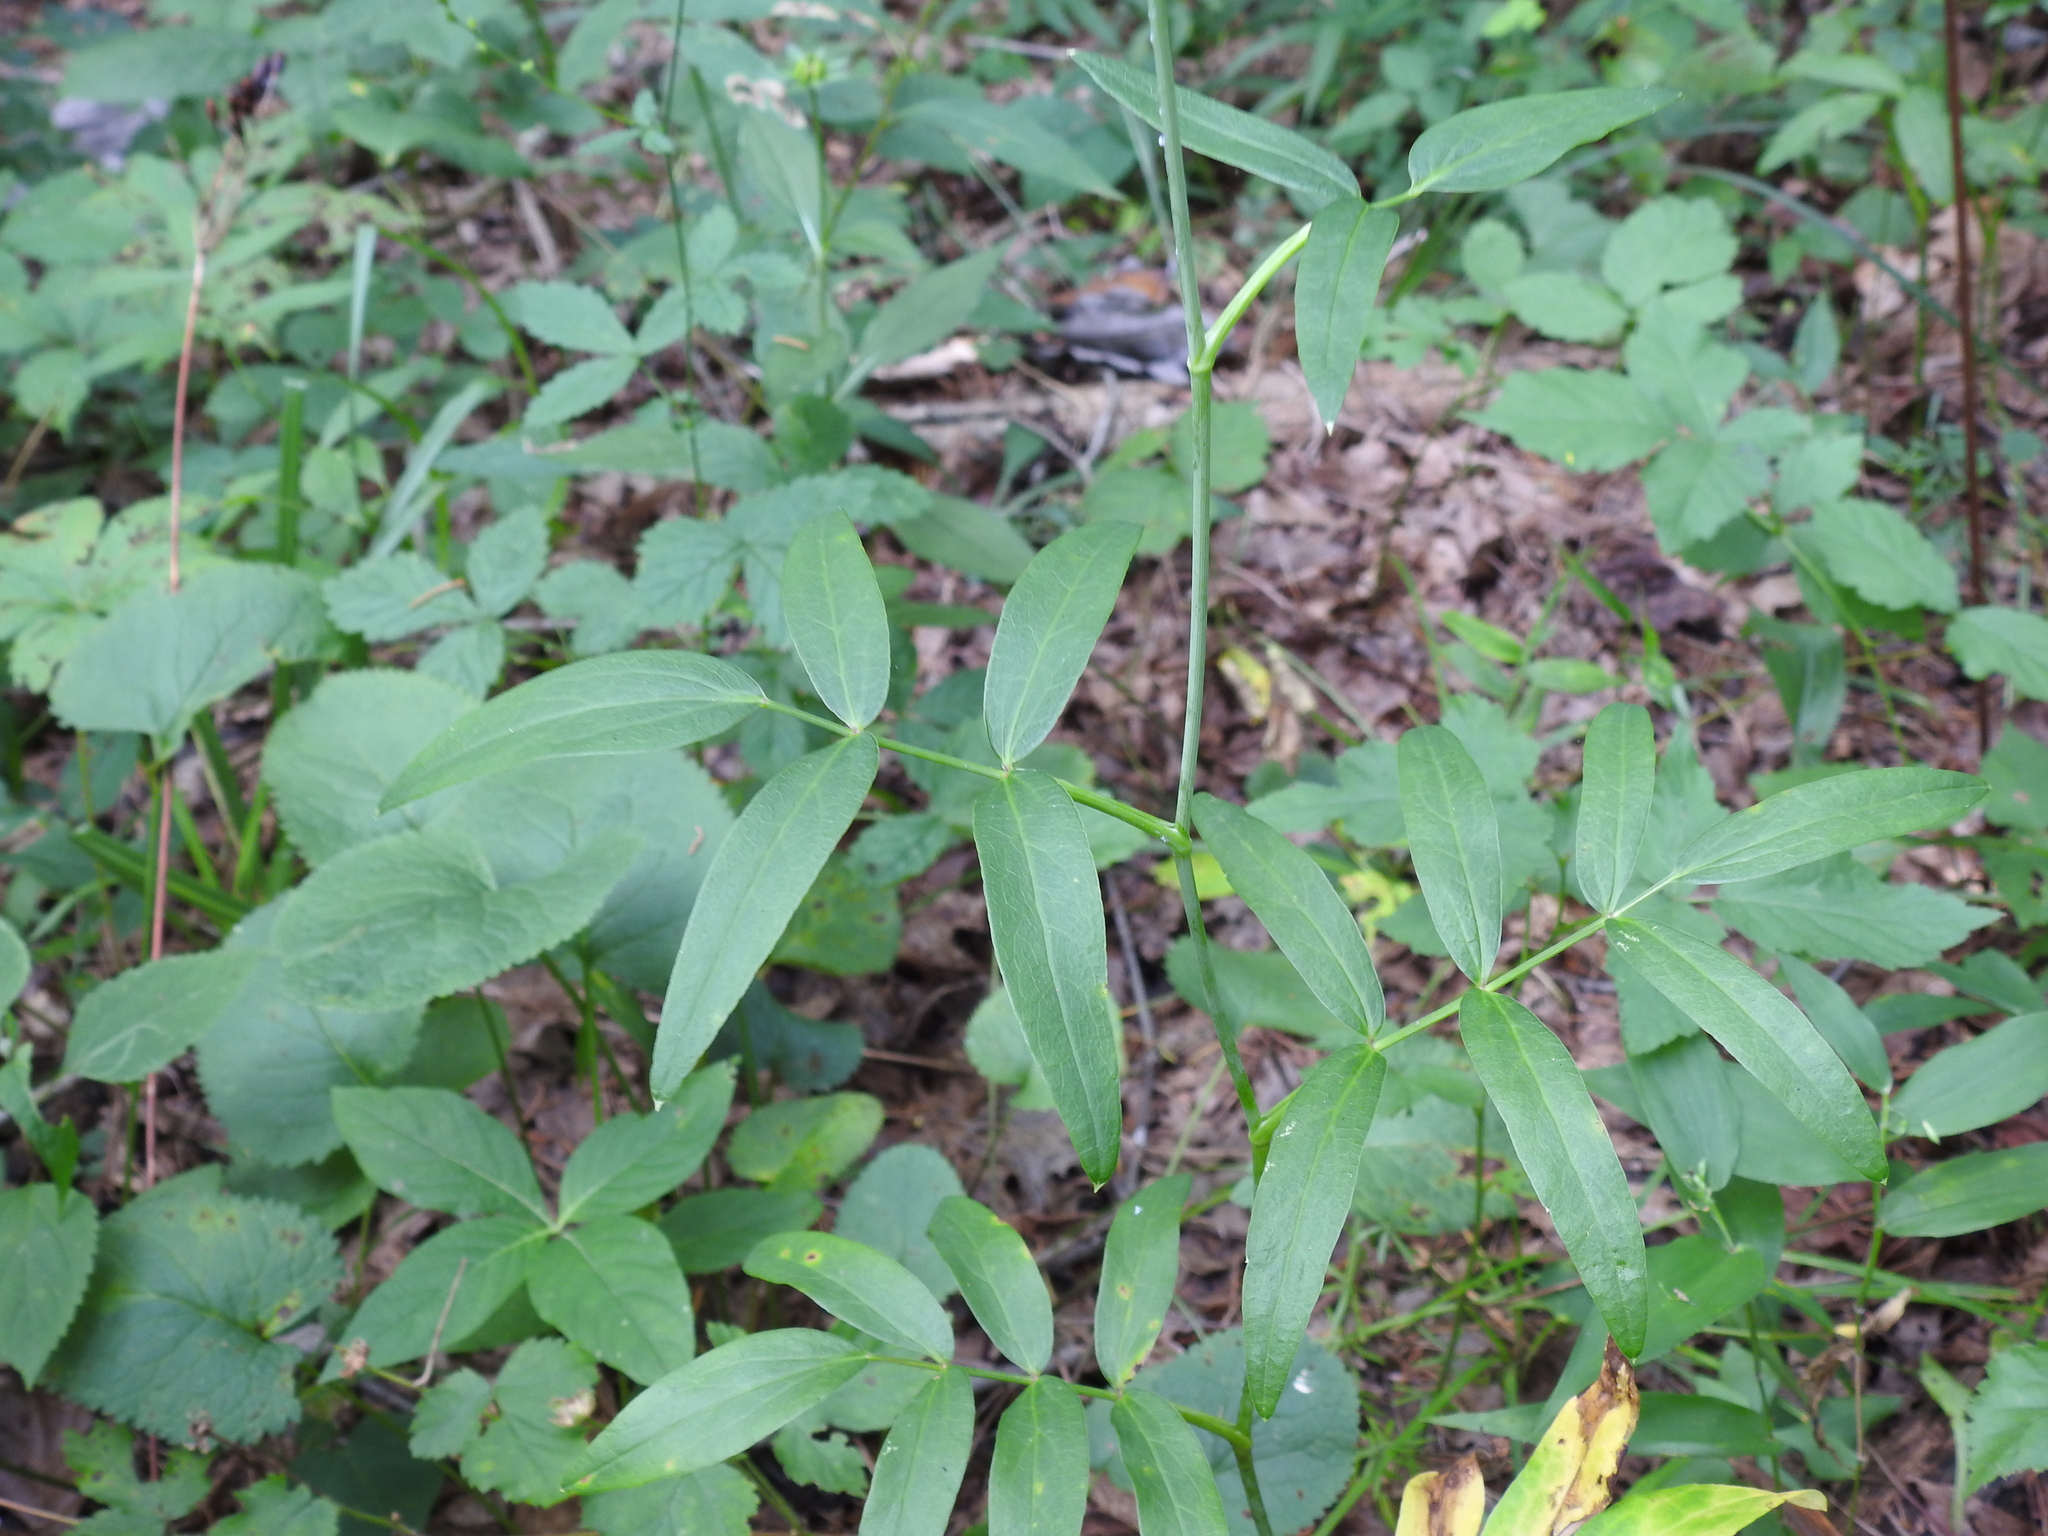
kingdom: Plantae
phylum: Tracheophyta
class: Magnoliopsida
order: Apiales
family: Apiaceae
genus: Oxypolis
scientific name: Oxypolis rigidior
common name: Cowbane
